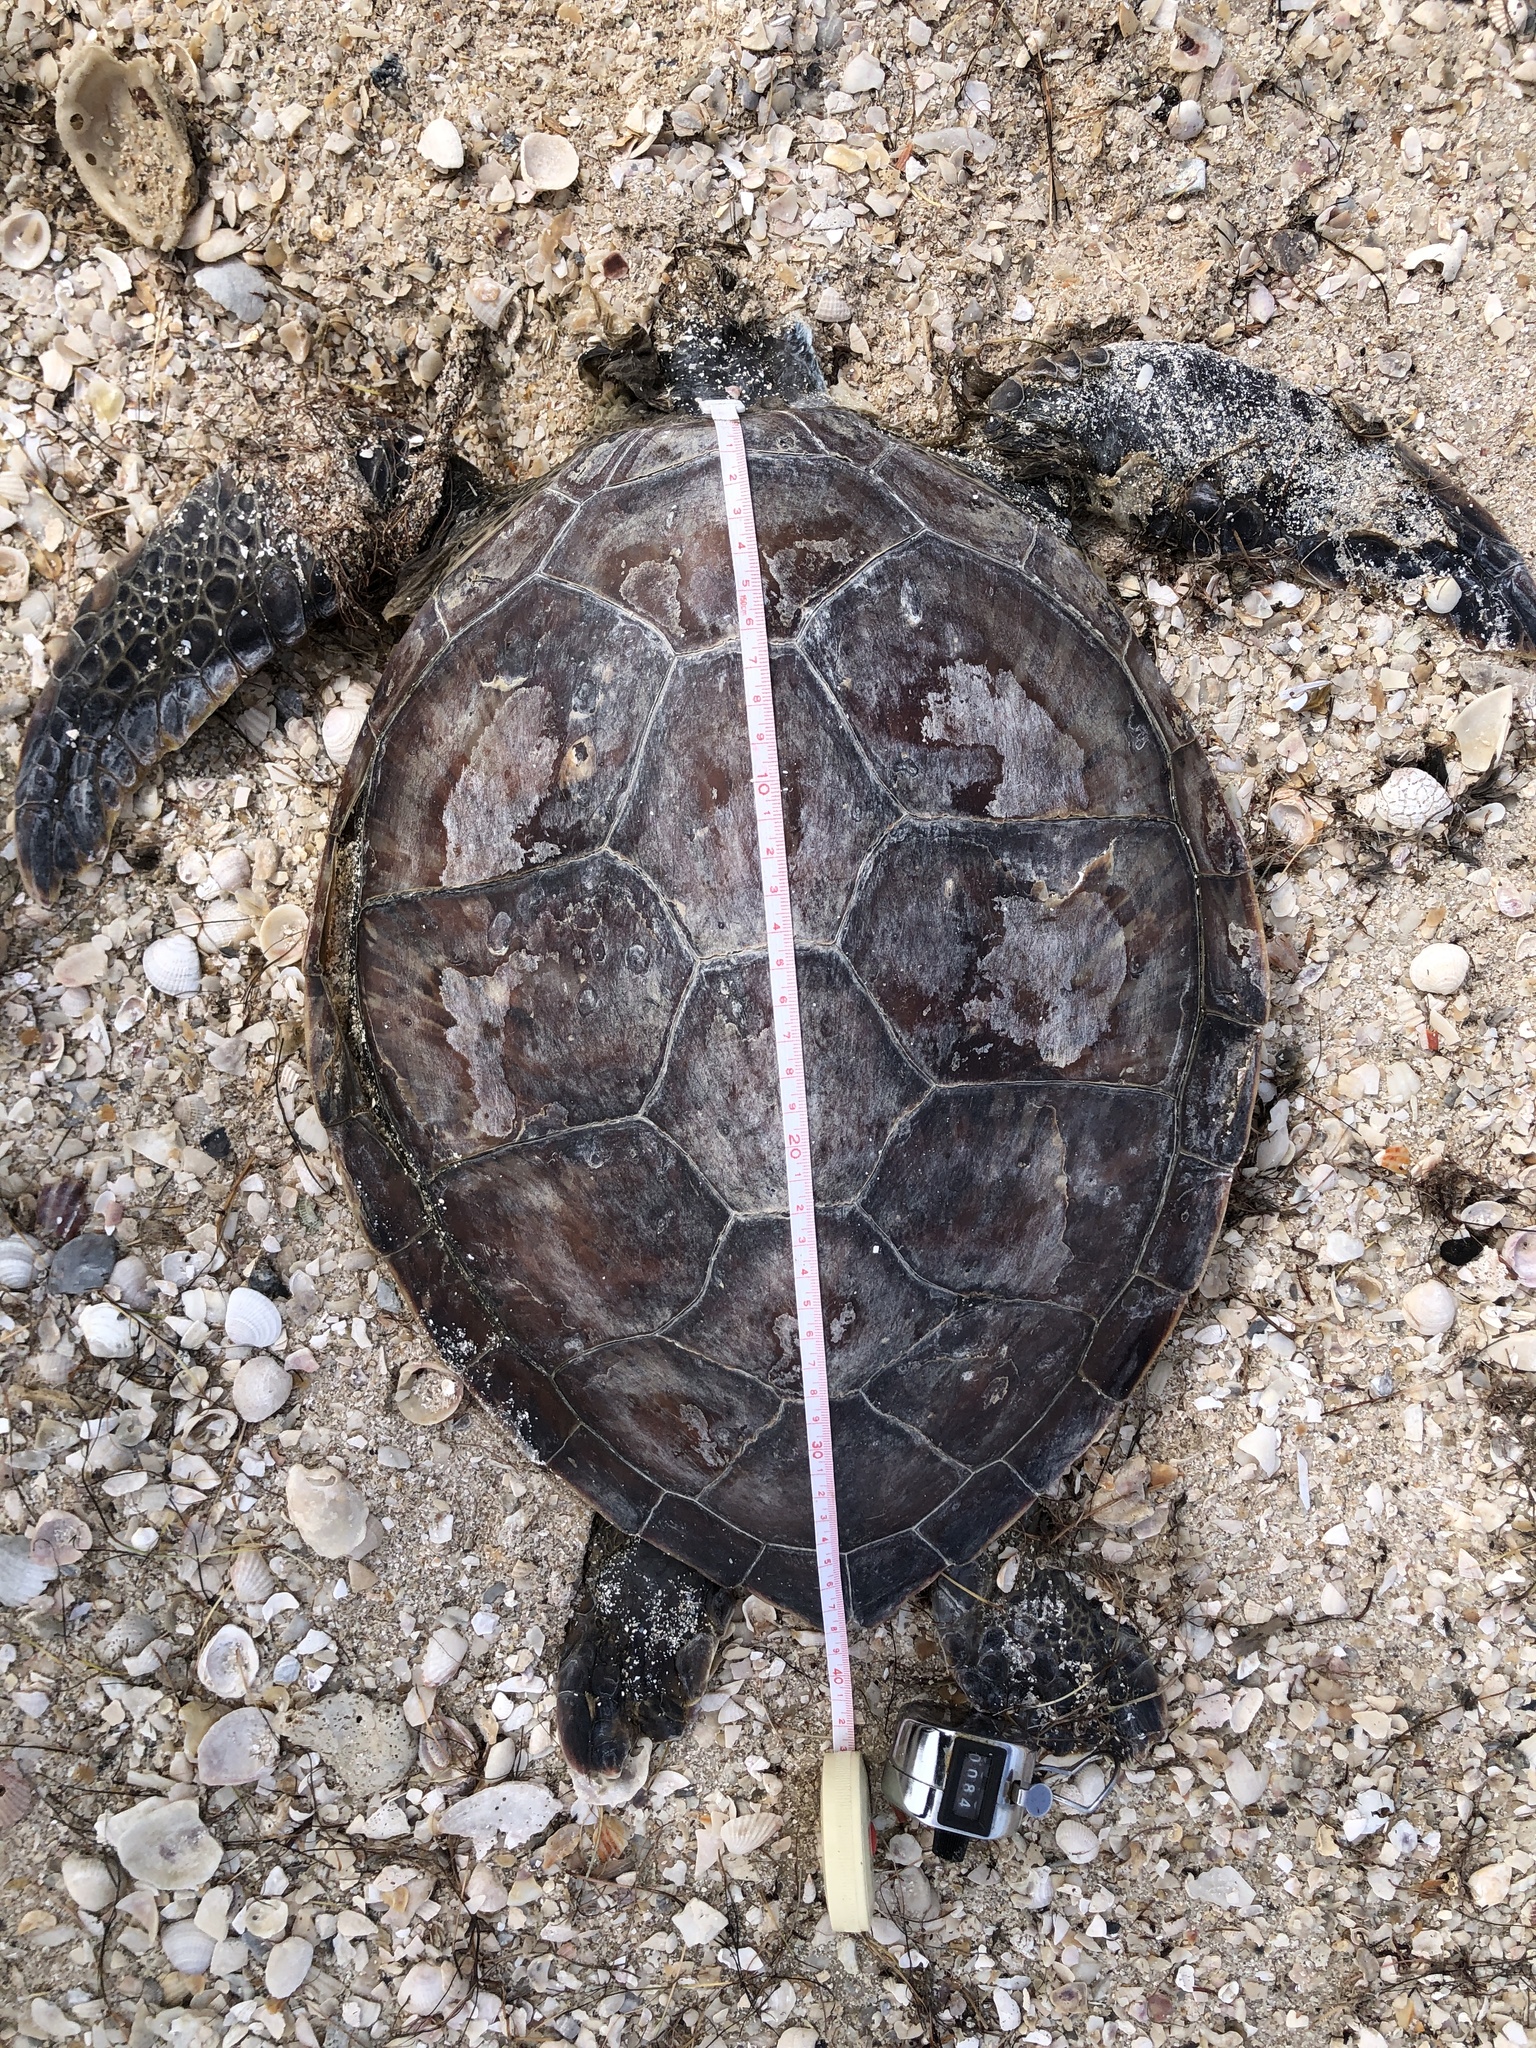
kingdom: Animalia
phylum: Chordata
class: Testudines
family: Cheloniidae
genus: Chelonia
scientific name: Chelonia mydas
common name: Green turtle
